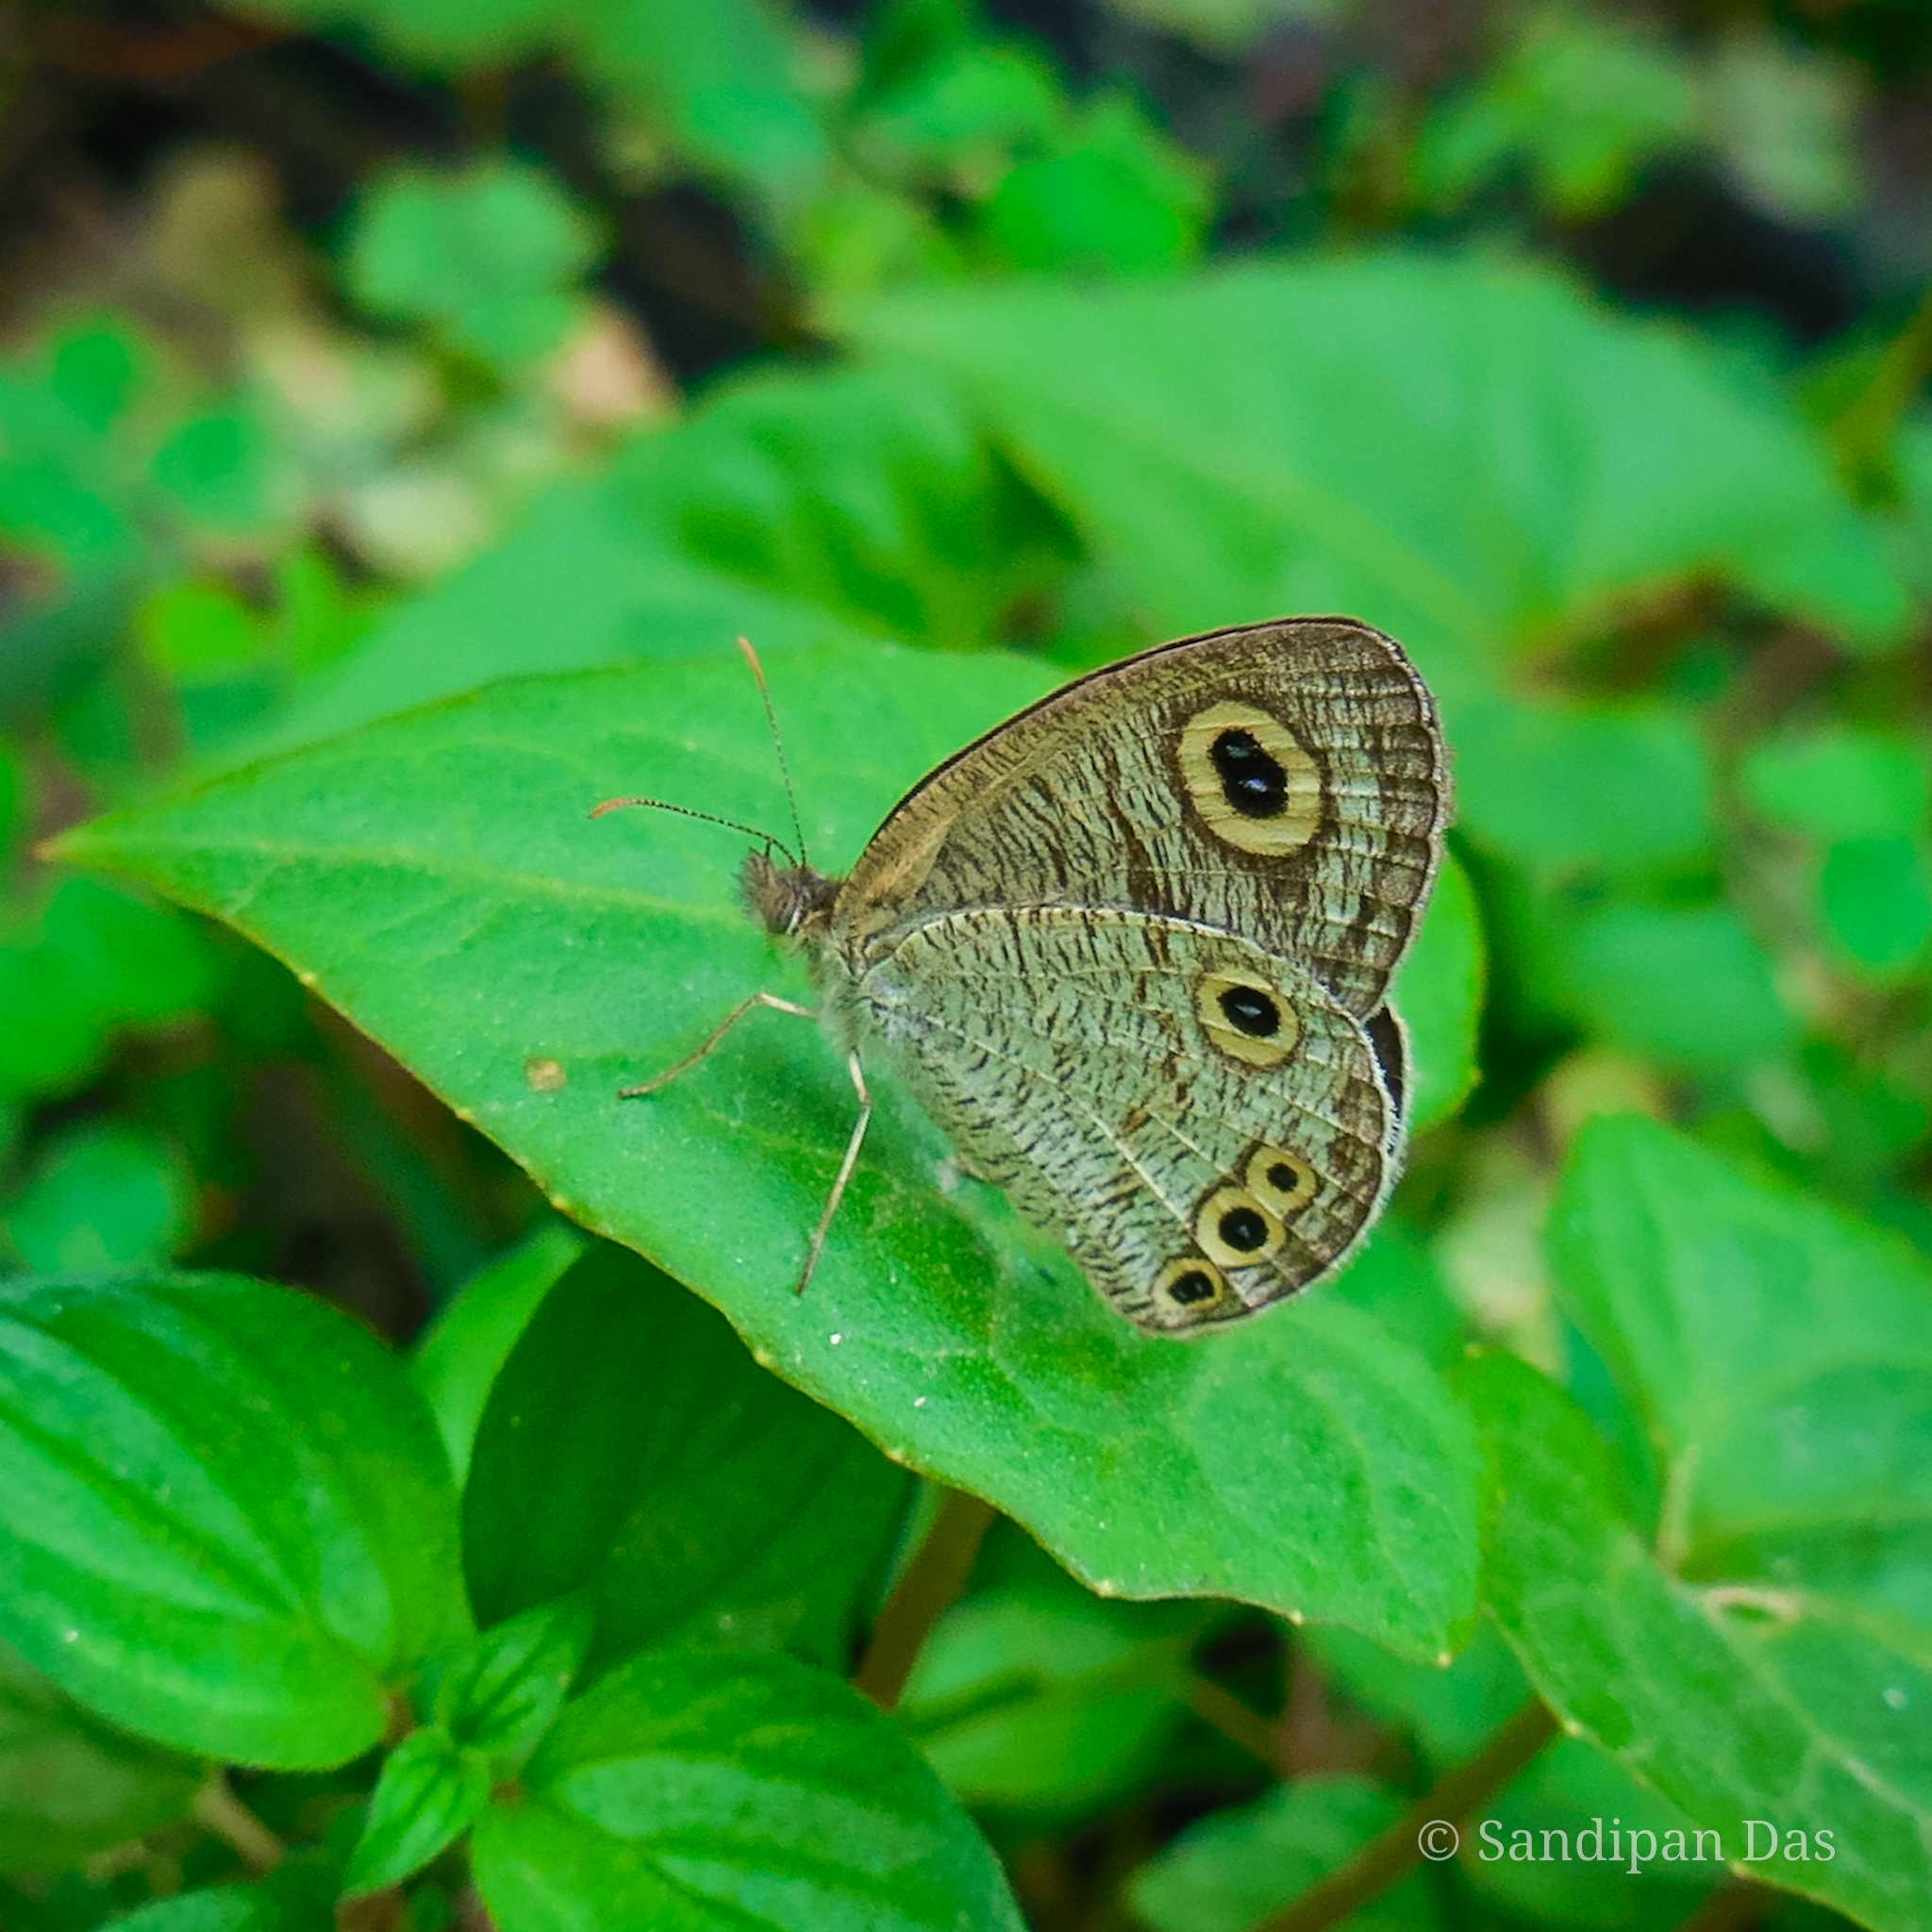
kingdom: Animalia
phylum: Arthropoda
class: Insecta
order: Lepidoptera
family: Nymphalidae
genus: Ypthima
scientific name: Ypthima huebneri
